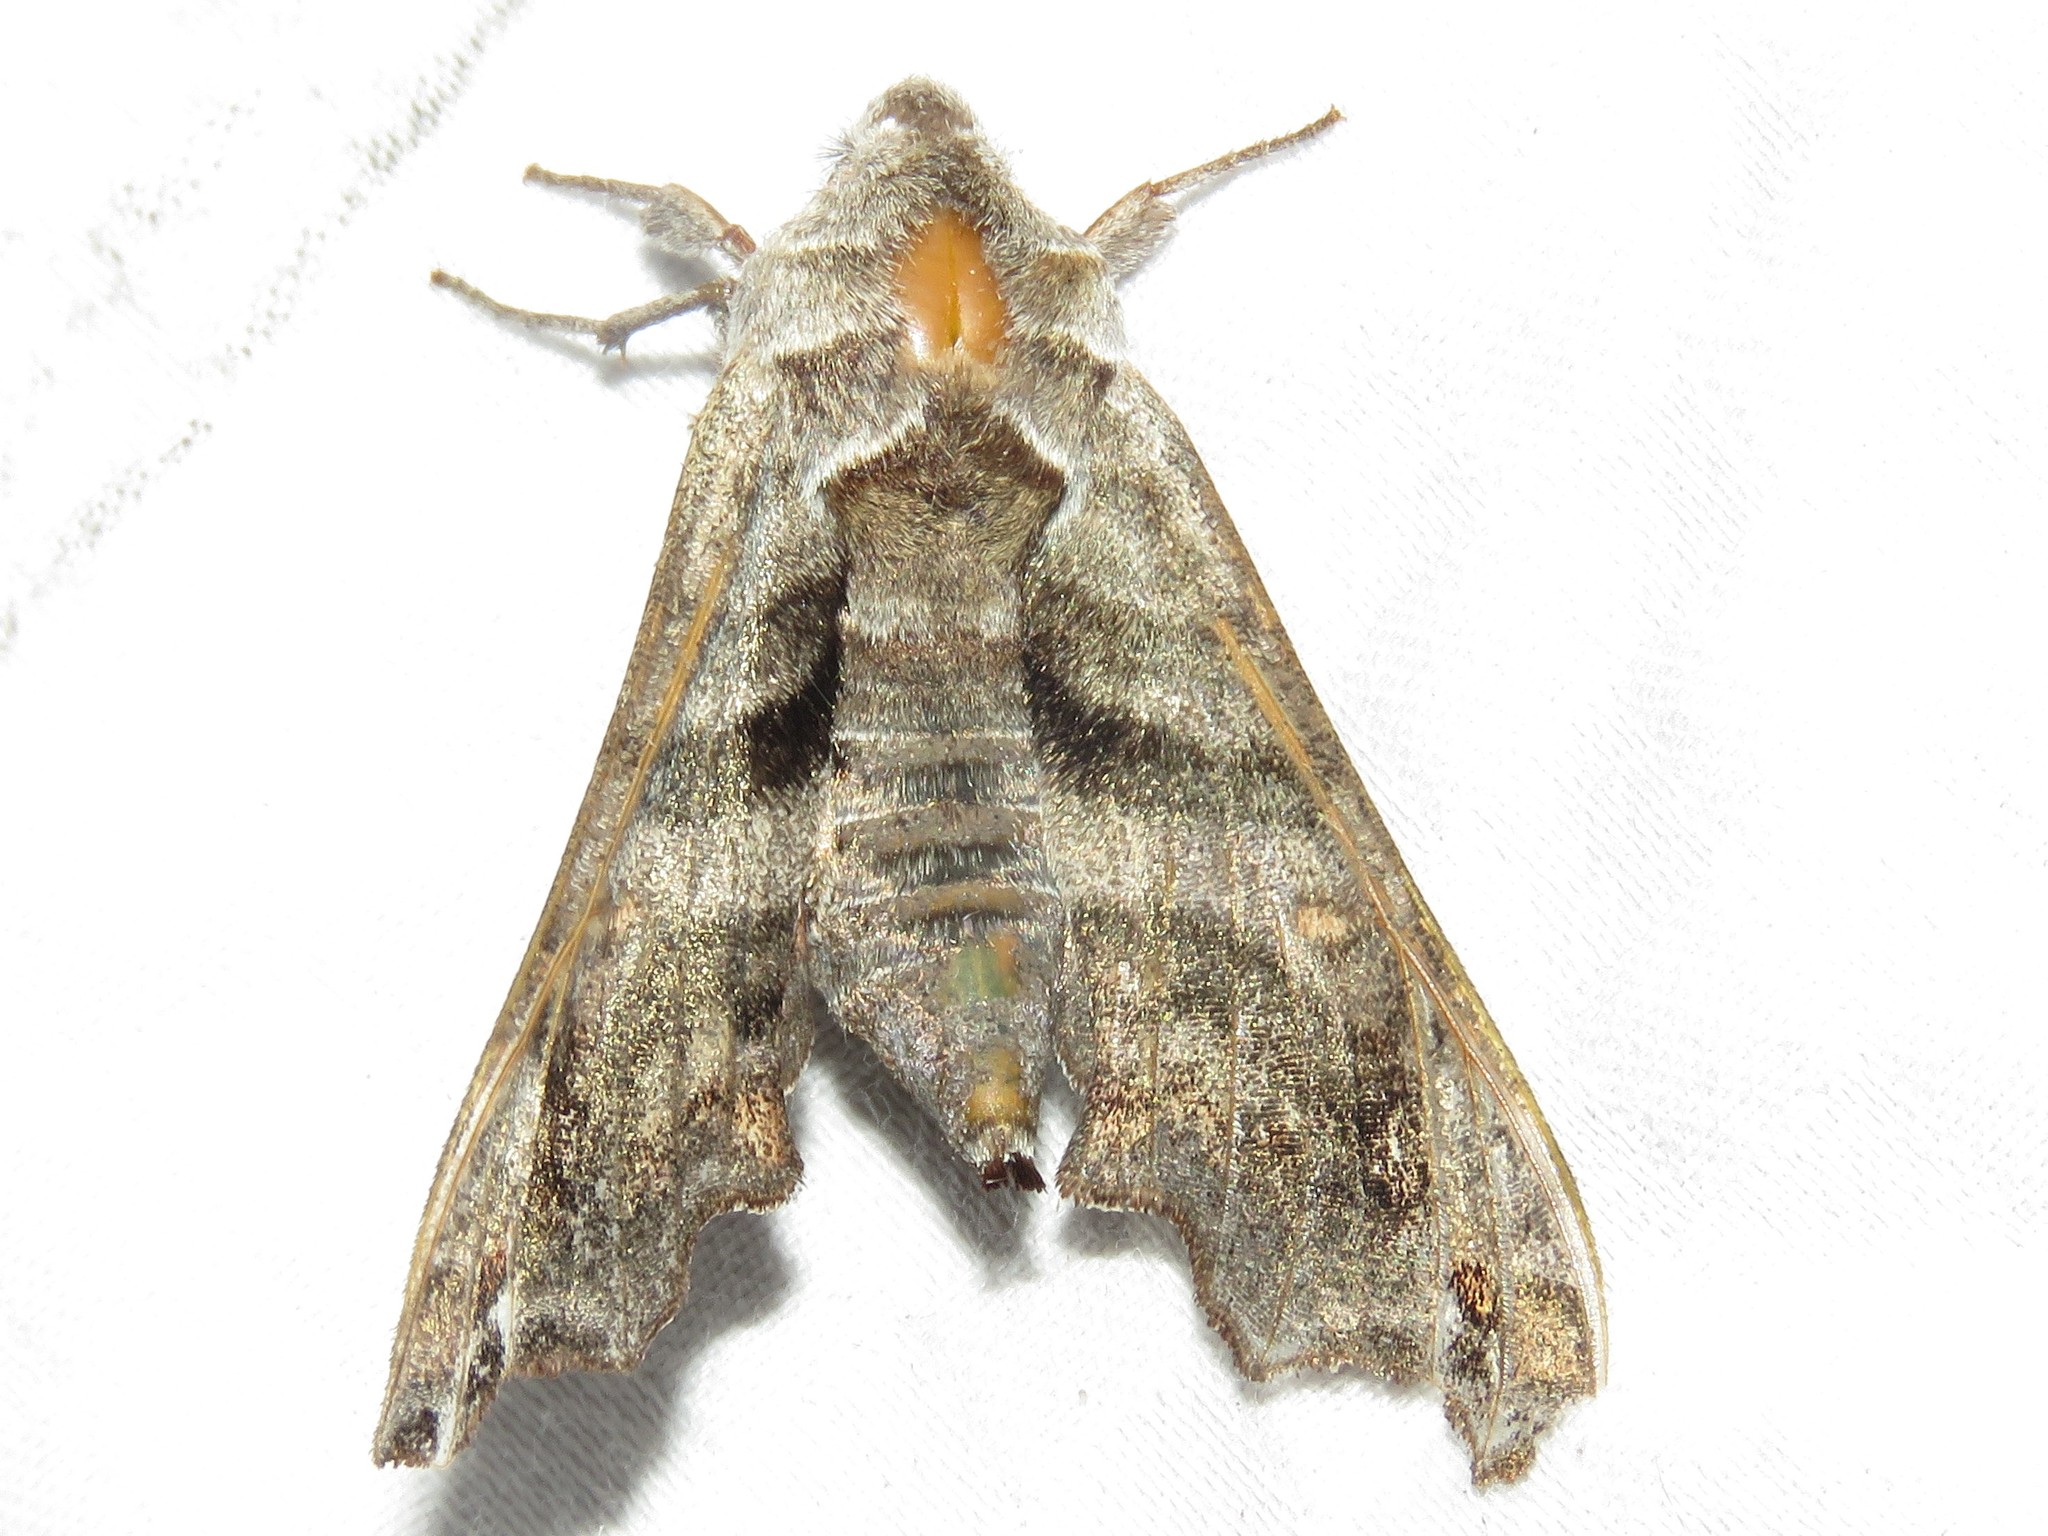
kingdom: Animalia
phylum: Arthropoda
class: Insecta
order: Lepidoptera
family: Sphingidae
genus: Deidamia
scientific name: Deidamia inscriptum
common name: Lettered sphinx
